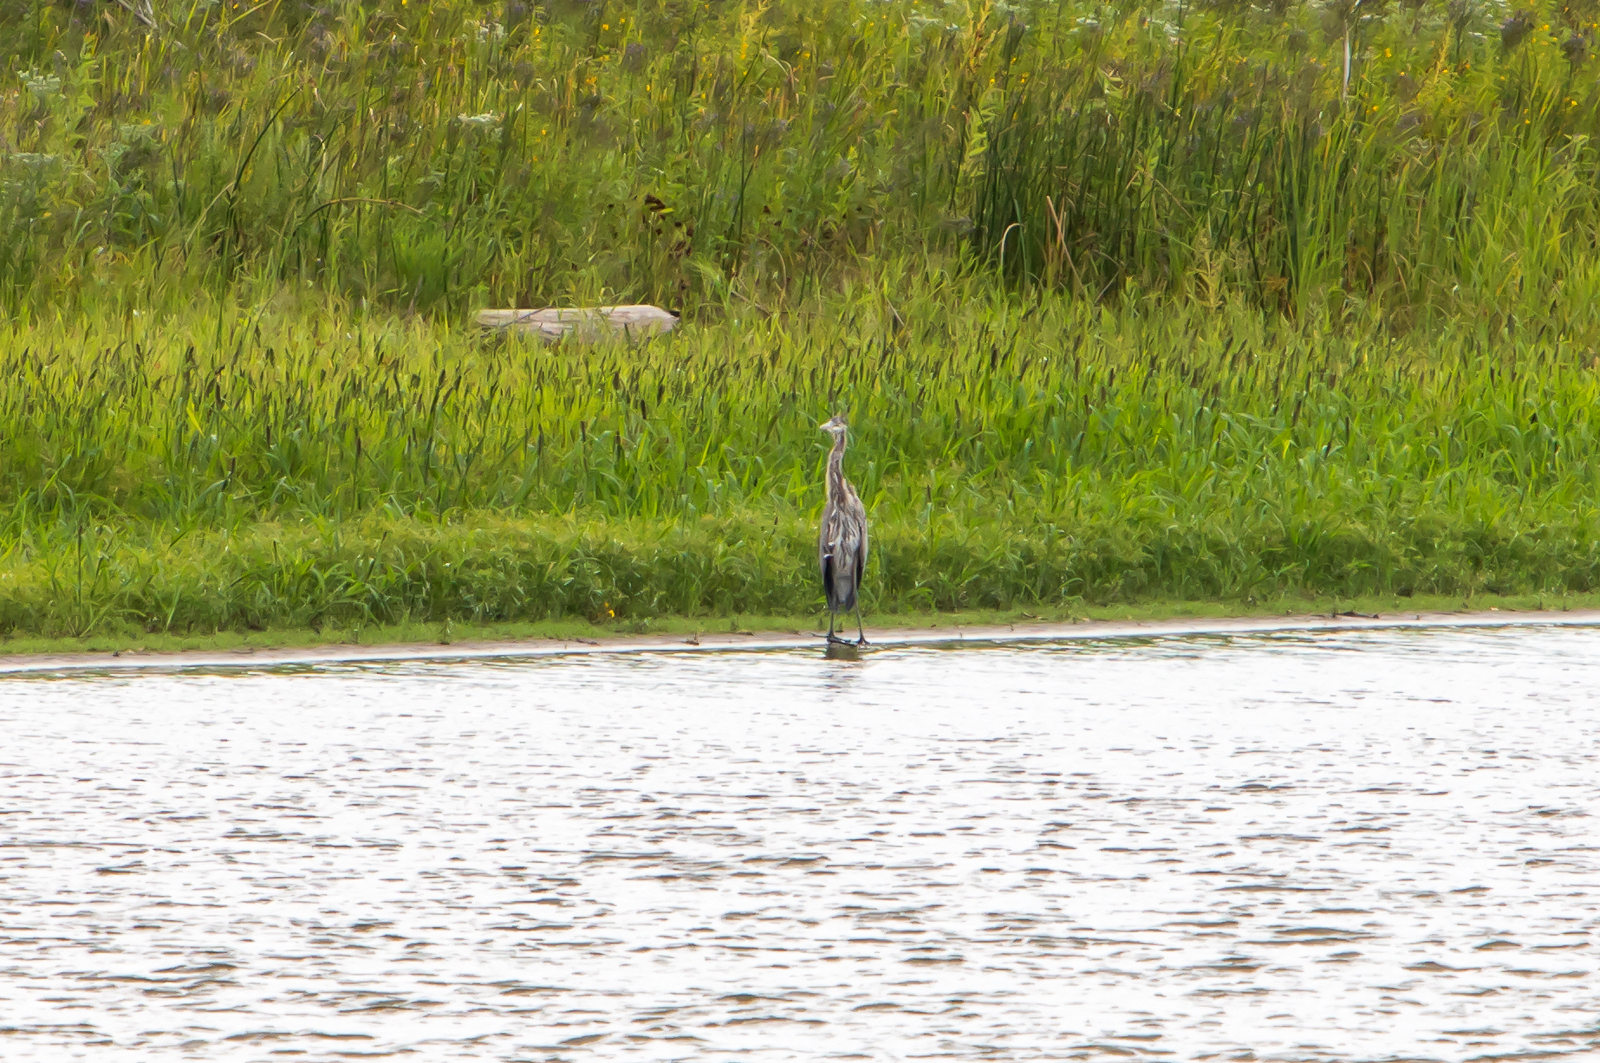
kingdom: Animalia
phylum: Chordata
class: Aves
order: Pelecaniformes
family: Ardeidae
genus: Ardea
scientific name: Ardea herodias
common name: Great blue heron
